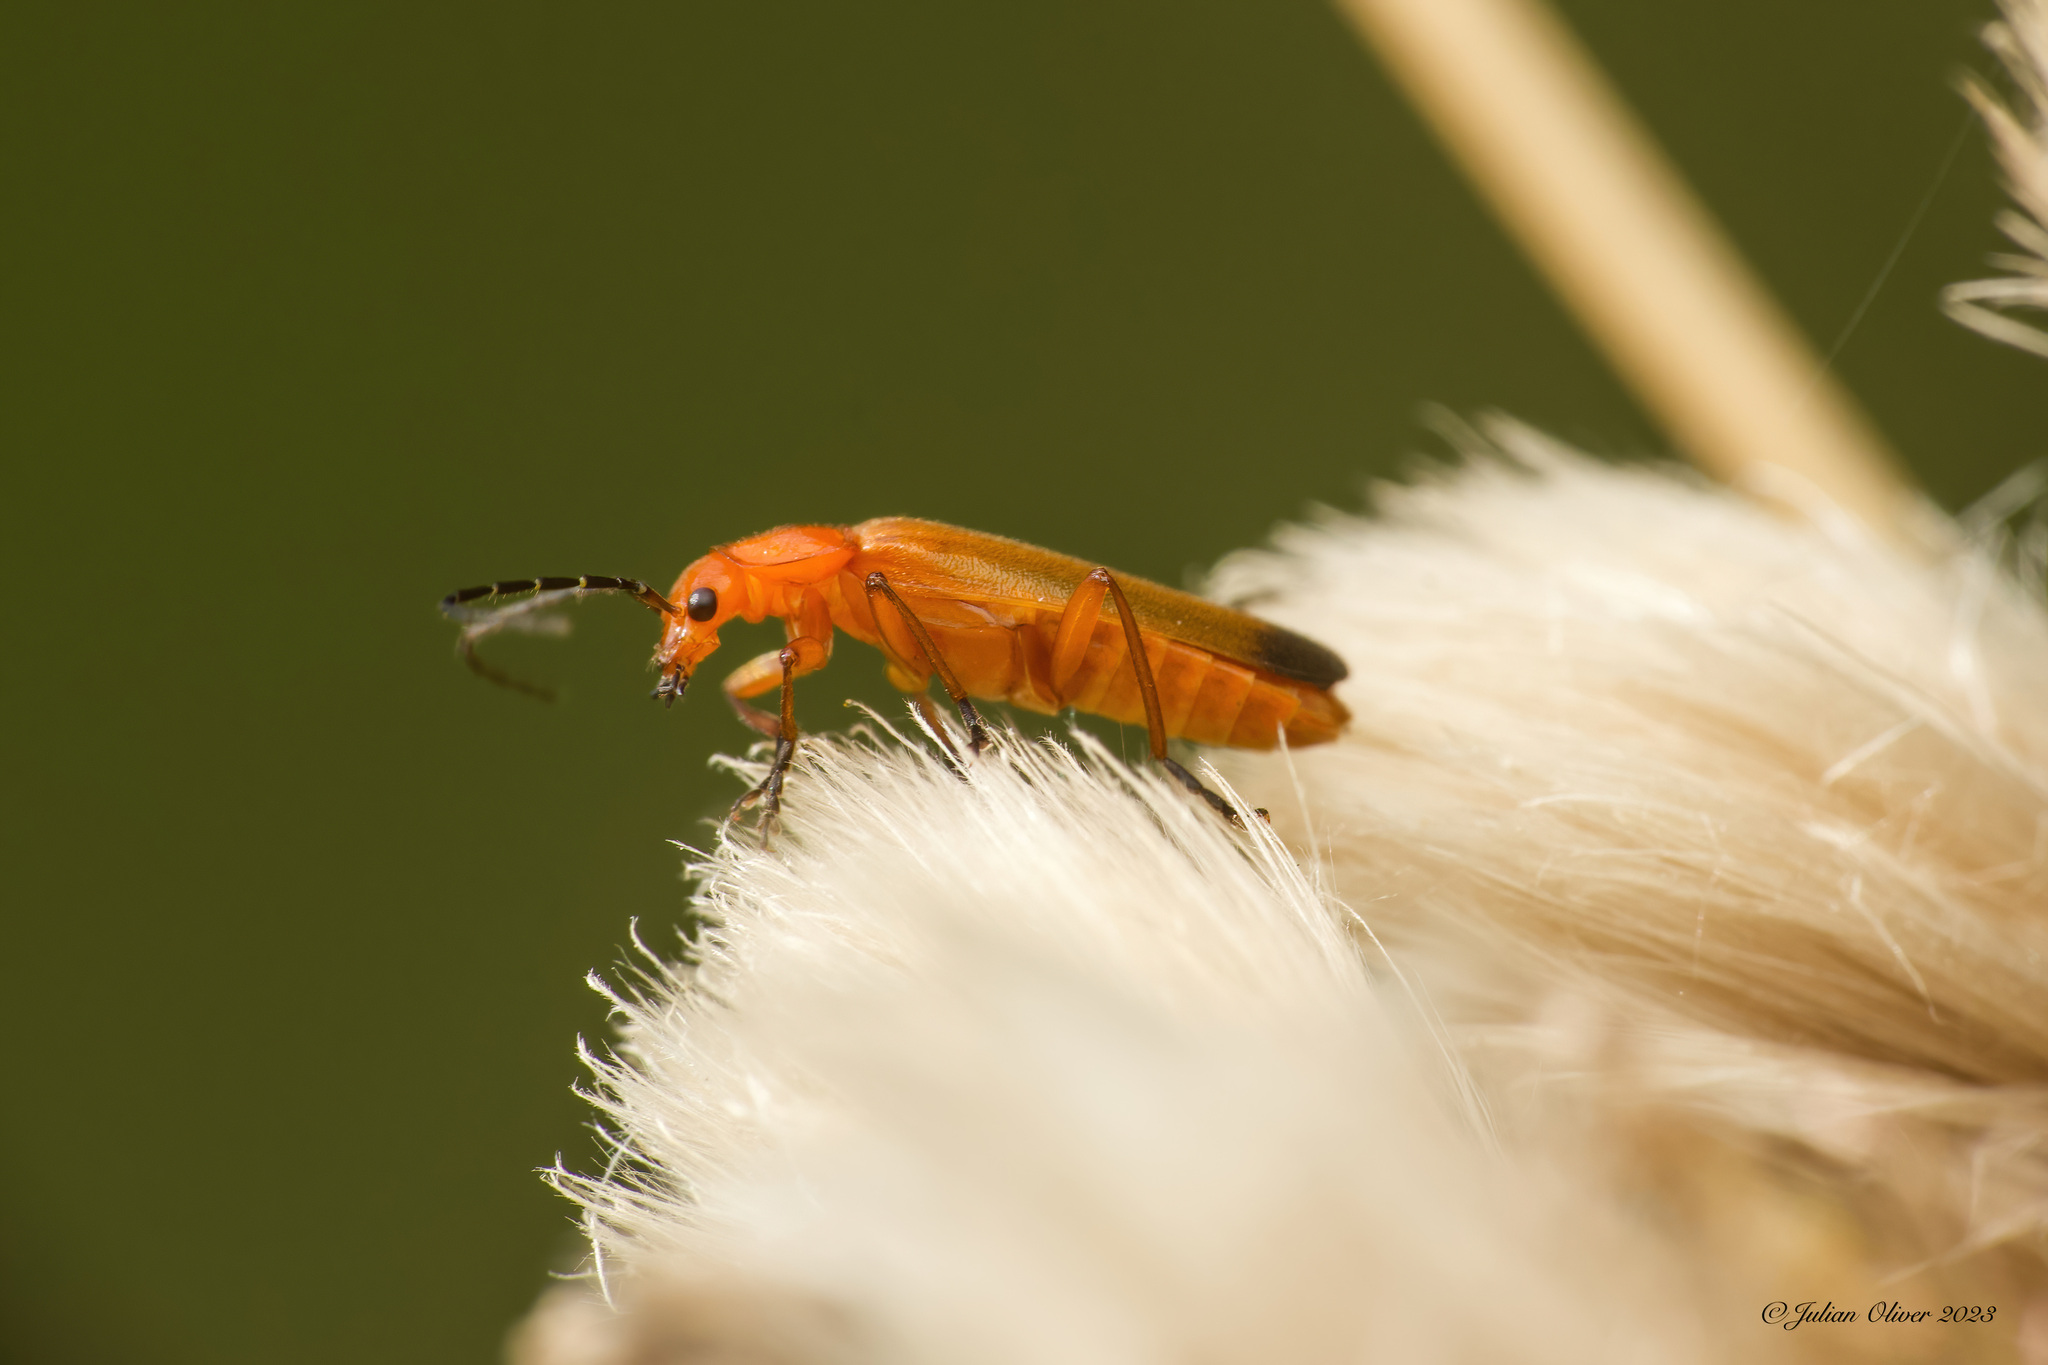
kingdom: Animalia
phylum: Arthropoda
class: Insecta
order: Coleoptera
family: Cantharidae
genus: Rhagonycha
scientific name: Rhagonycha fulva
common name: Common red soldier beetle
